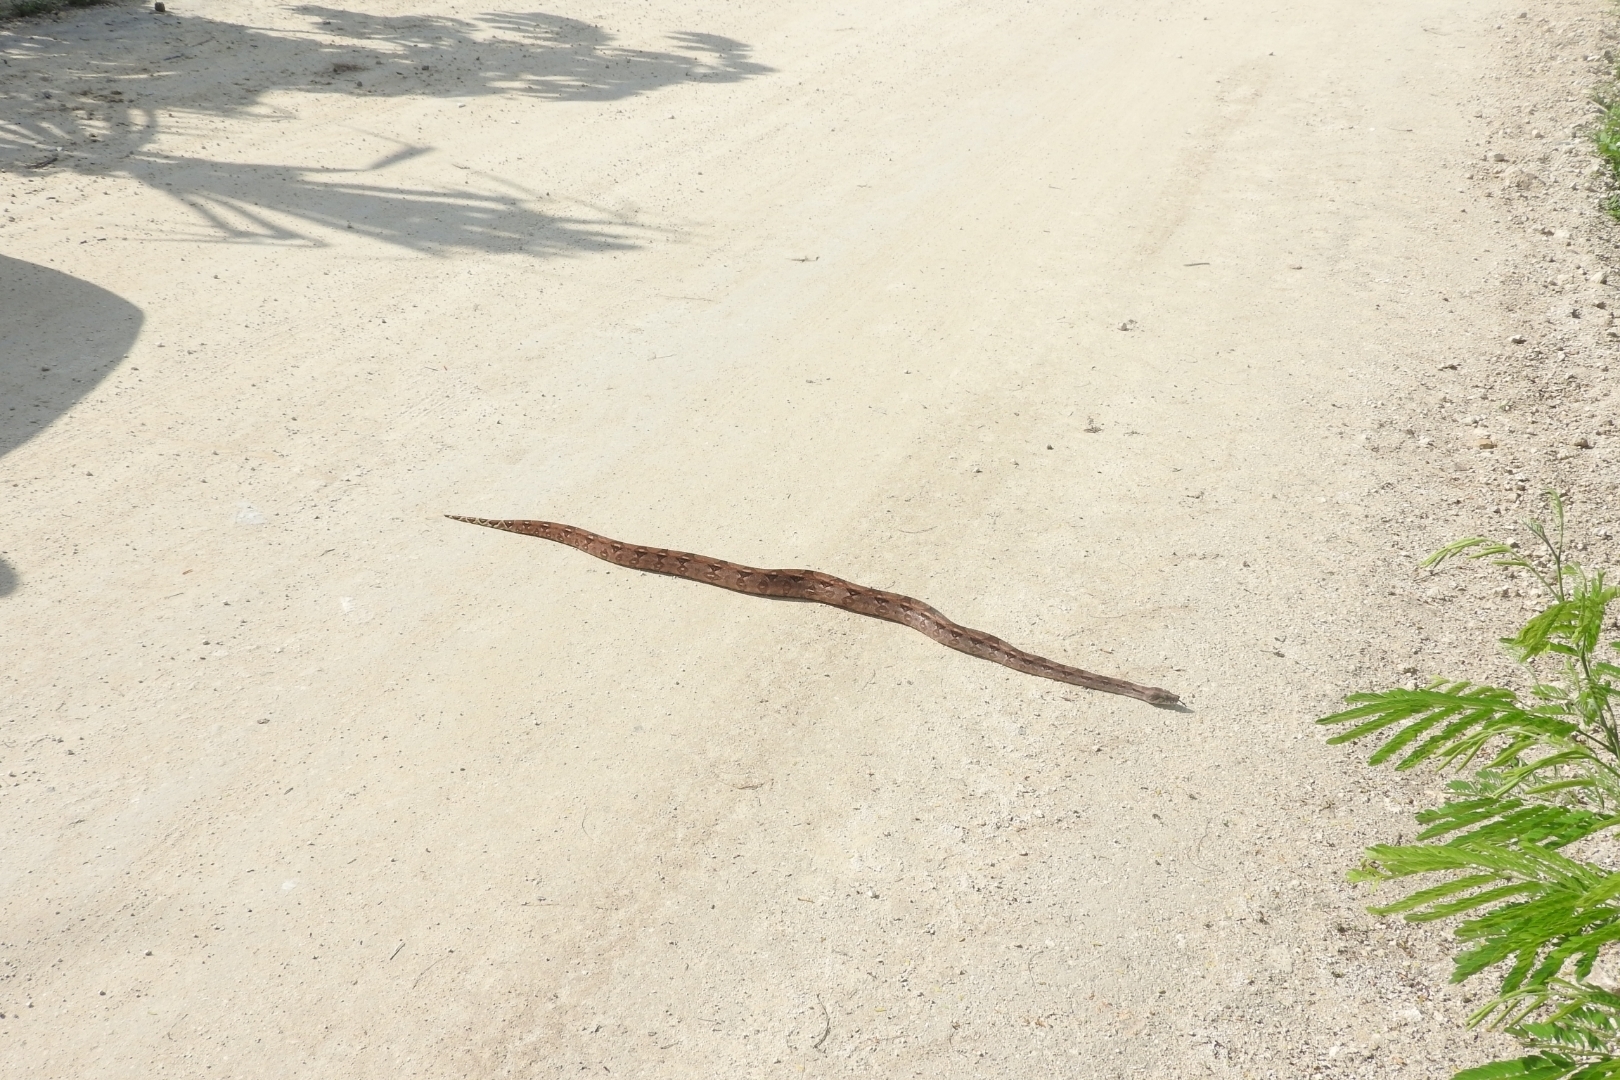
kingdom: Animalia
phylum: Chordata
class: Squamata
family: Boidae
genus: Boa
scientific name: Boa imperator
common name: Central american boa
